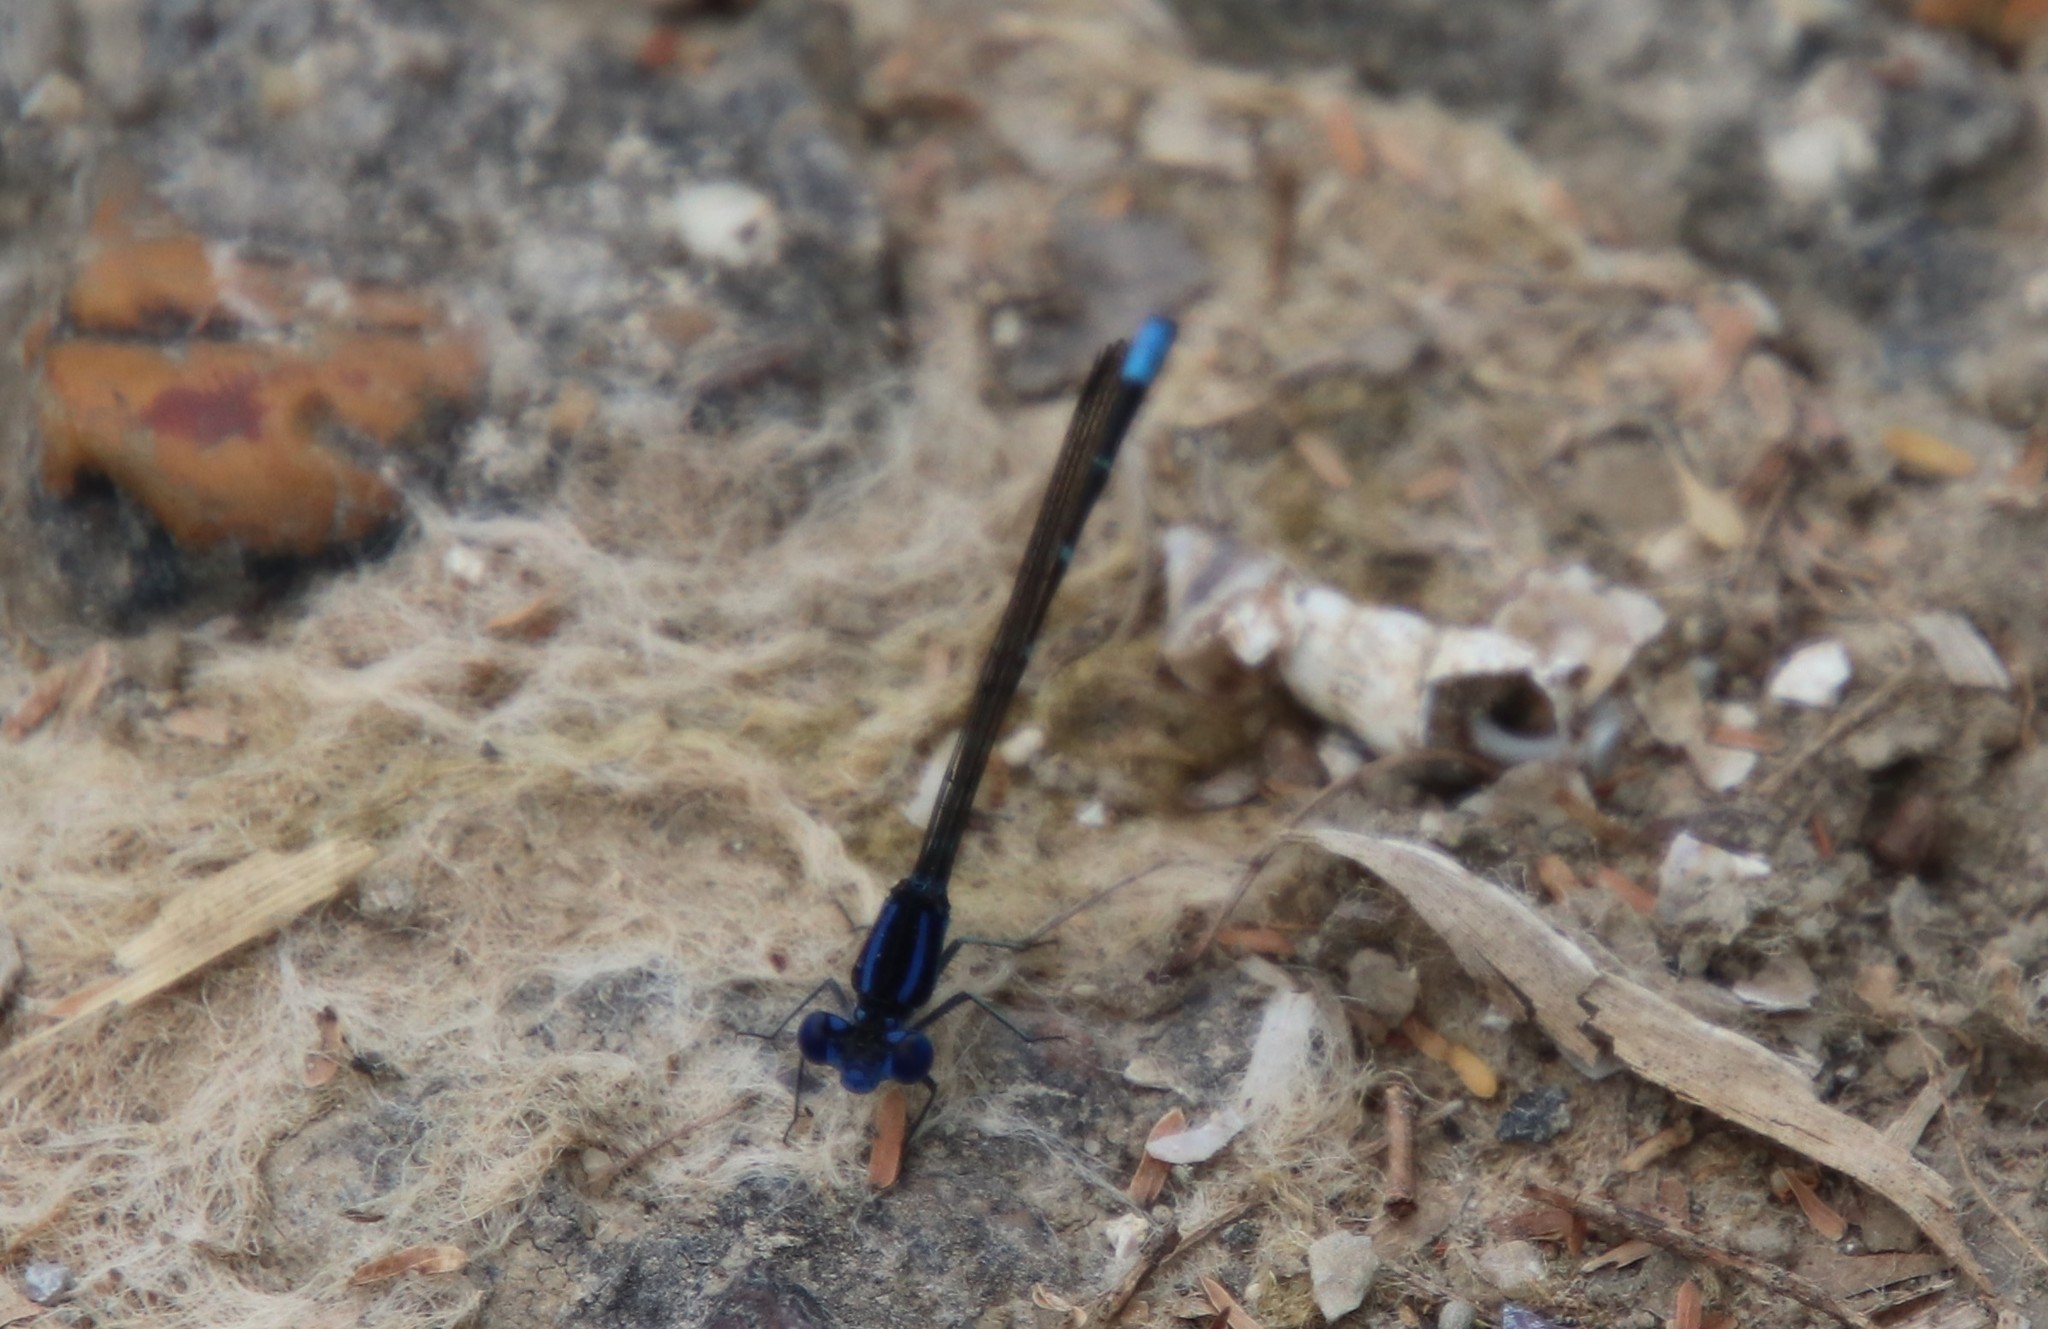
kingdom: Animalia
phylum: Arthropoda
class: Insecta
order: Odonata
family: Coenagrionidae
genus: Argia
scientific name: Argia sedula
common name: Blue-ringed dancer
